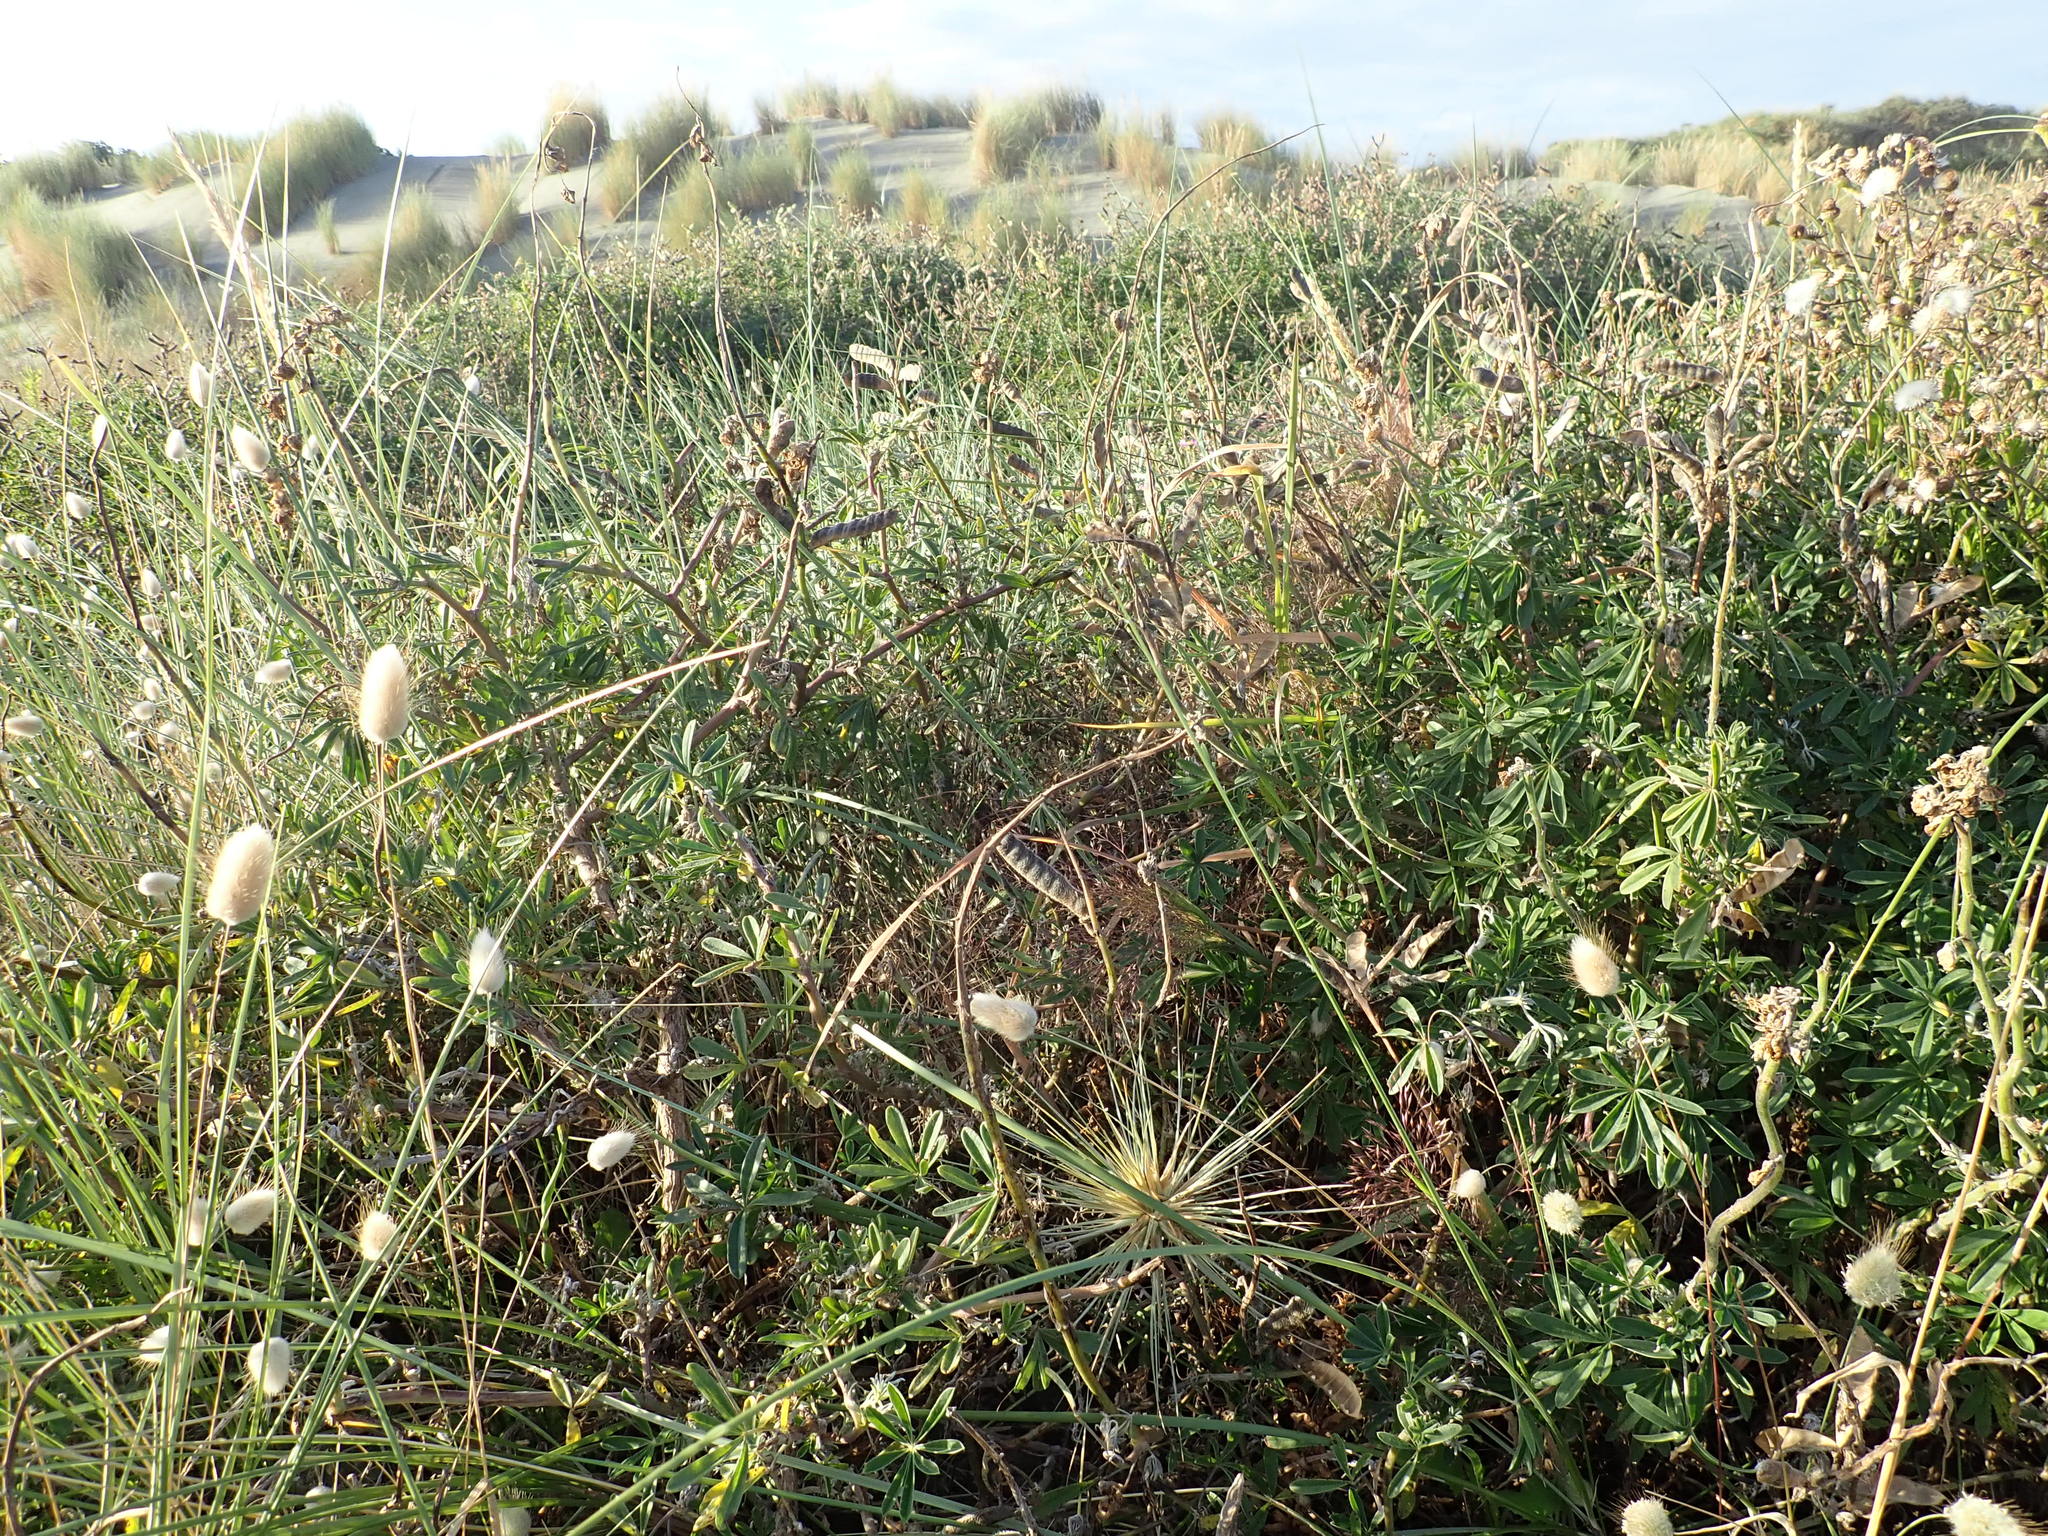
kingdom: Plantae
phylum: Tracheophyta
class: Magnoliopsida
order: Fabales
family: Fabaceae
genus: Lupinus
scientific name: Lupinus arboreus
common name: Yellow bush lupine
